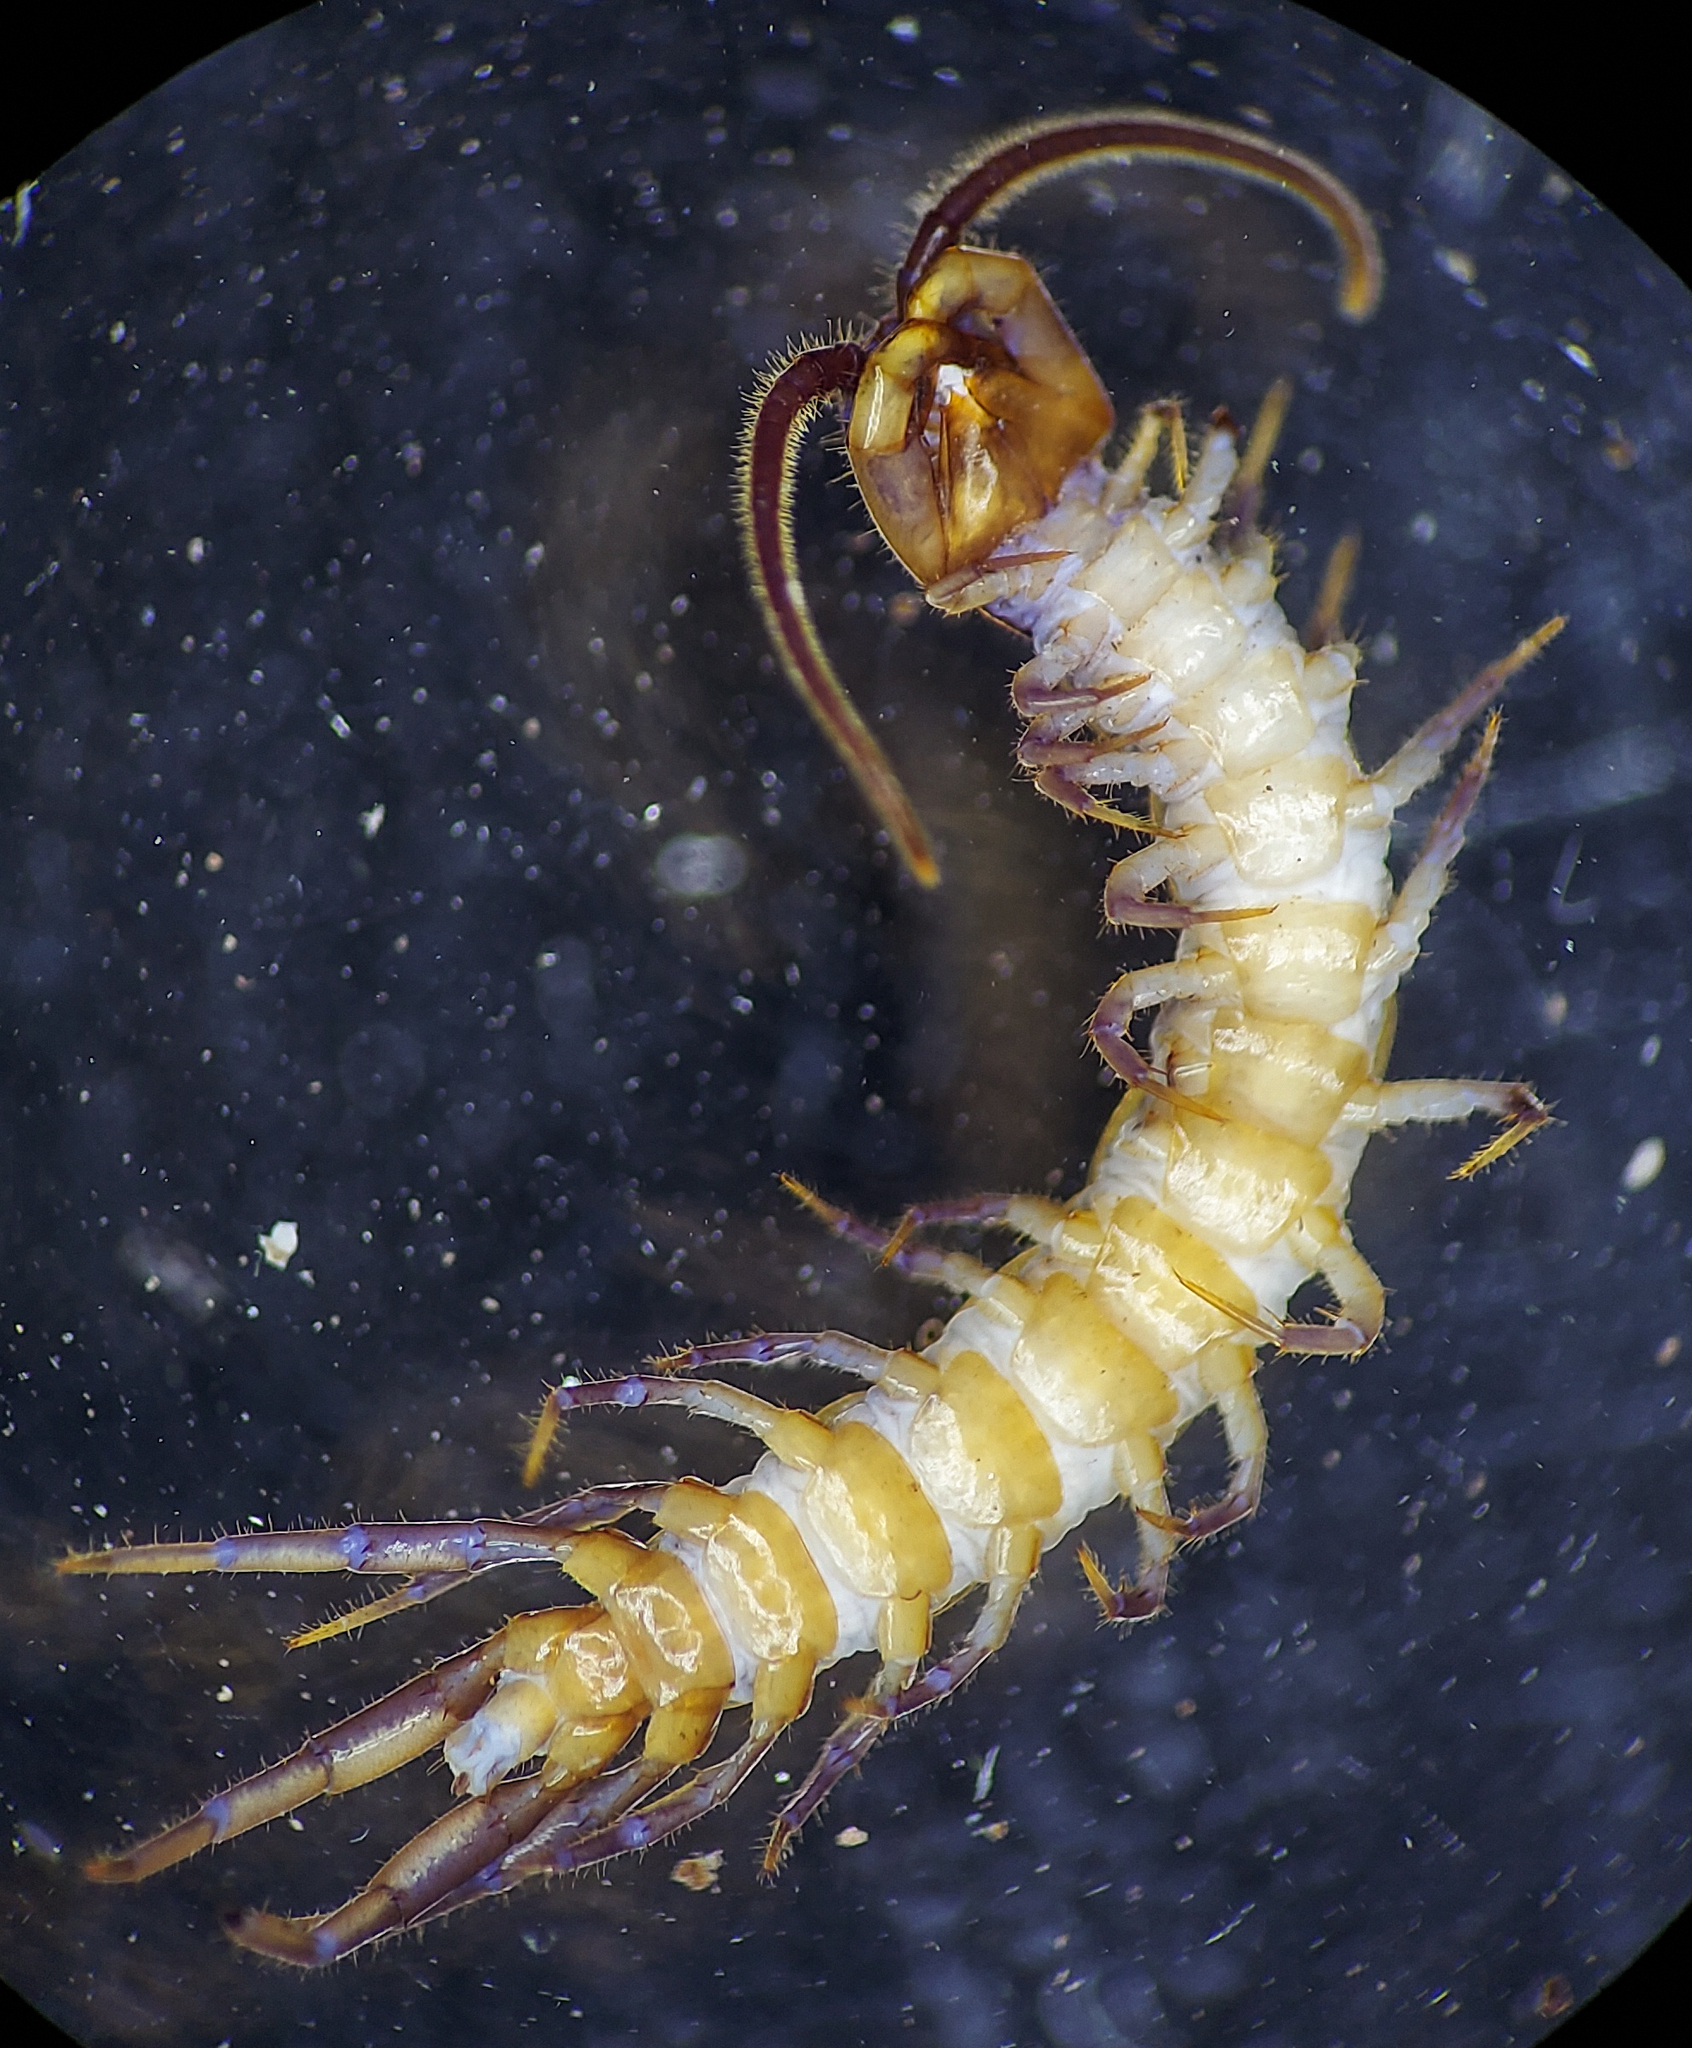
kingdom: Animalia
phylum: Arthropoda
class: Chilopoda
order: Lithobiomorpha
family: Lithobiidae
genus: Paitobius
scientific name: Paitobius zinus
